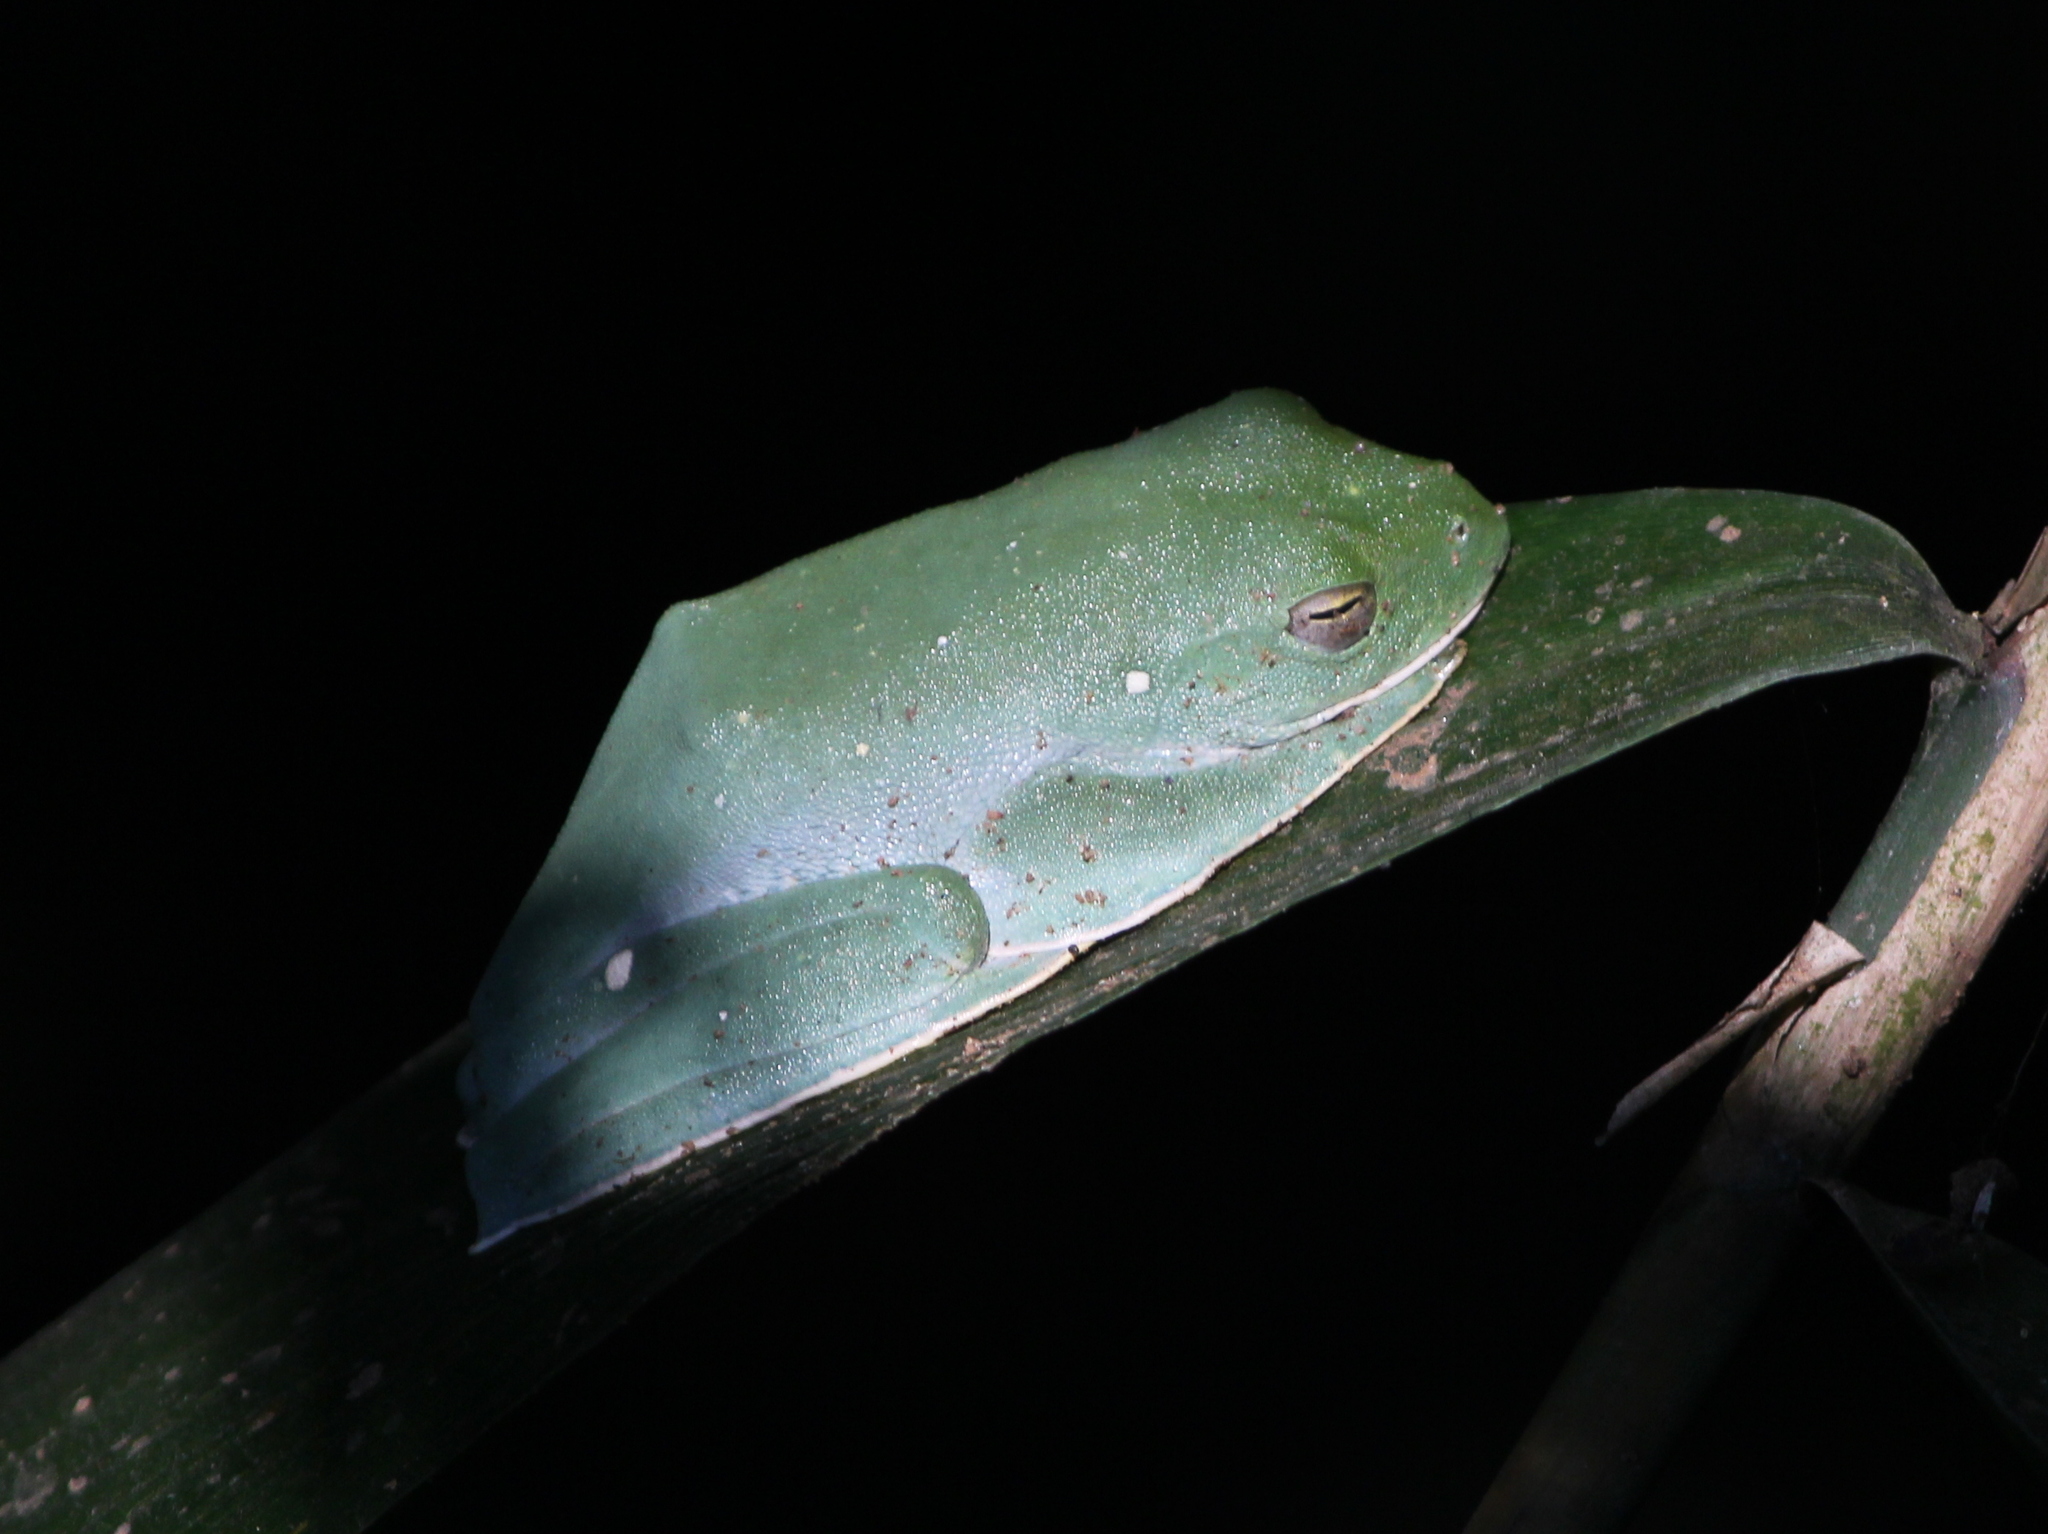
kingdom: Animalia
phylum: Chordata
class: Amphibia
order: Anura
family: Rhacophoridae
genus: Rhacophorus
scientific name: Rhacophorus malabaricus
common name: Malabar gliding frog
